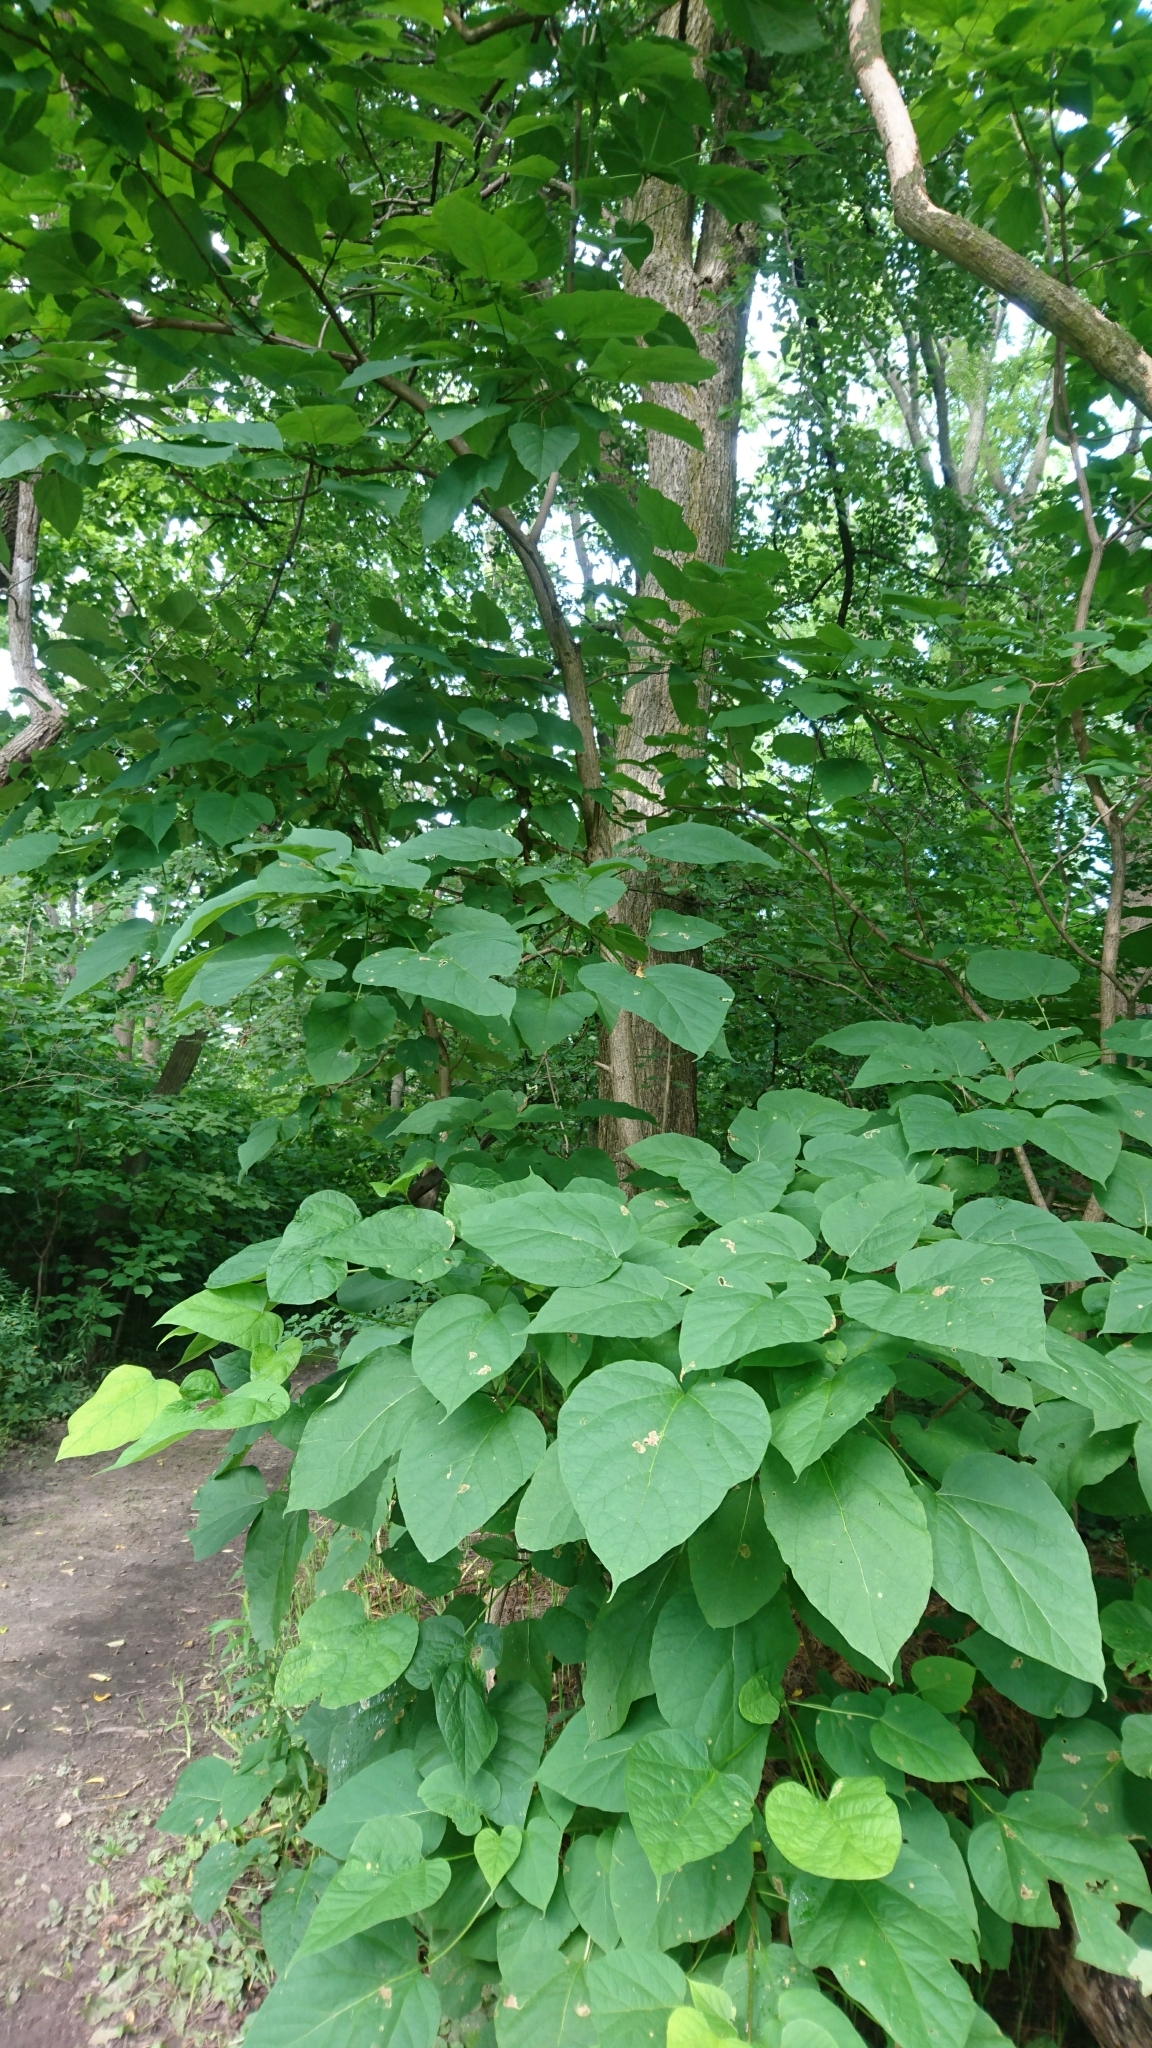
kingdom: Plantae
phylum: Tracheophyta
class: Magnoliopsida
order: Lamiales
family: Bignoniaceae
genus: Catalpa
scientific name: Catalpa speciosa
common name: Northern catalpa
